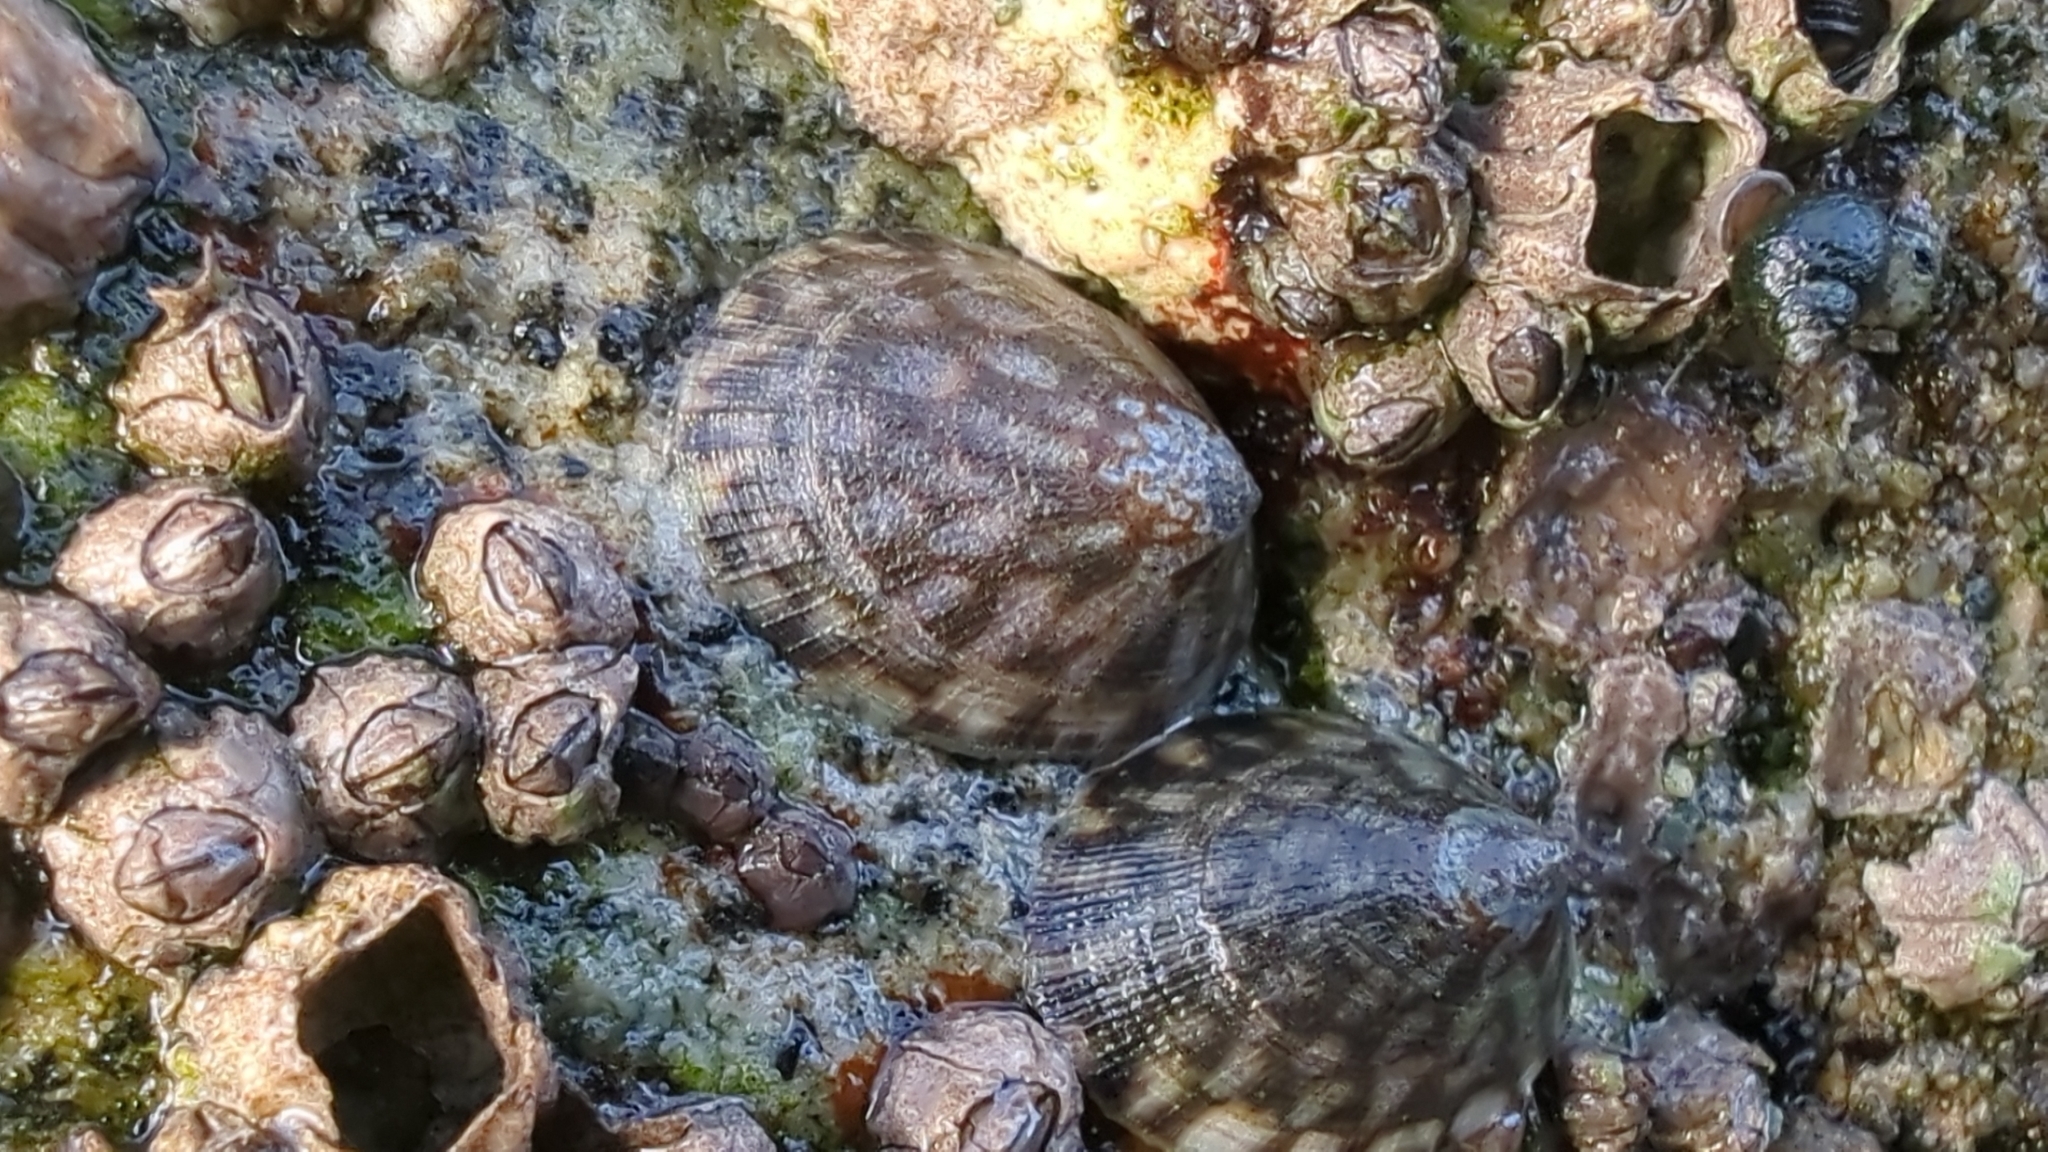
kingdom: Animalia
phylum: Mollusca
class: Gastropoda
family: Lottiidae
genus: Lottia
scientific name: Lottia persona
